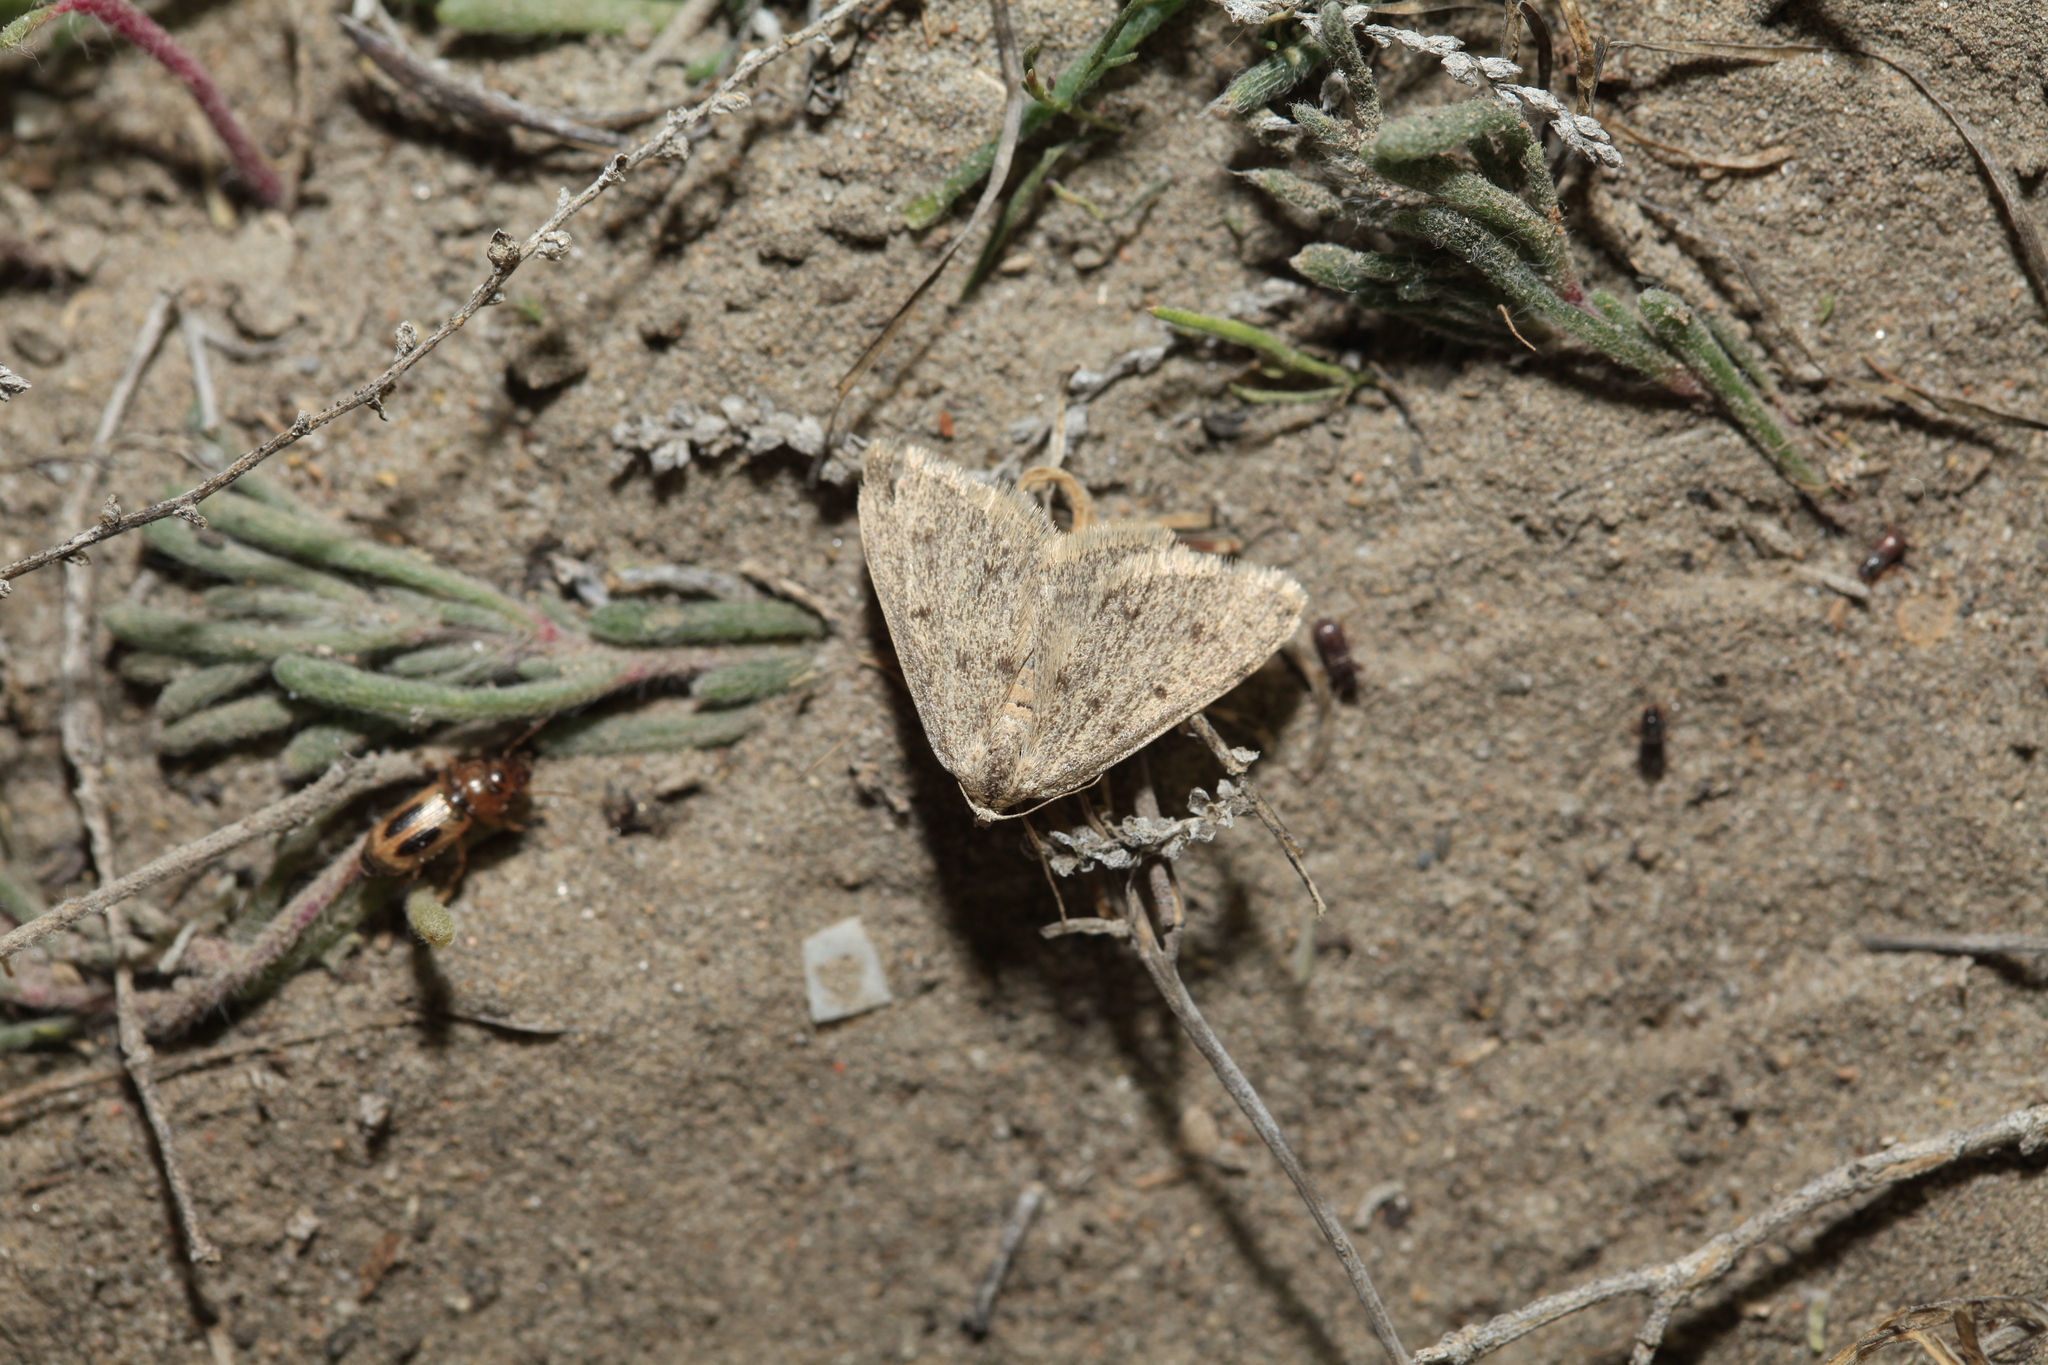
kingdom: Animalia
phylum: Arthropoda
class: Insecta
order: Lepidoptera
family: Geometridae
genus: Rhodostrophia
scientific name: Rhodostrophia badiaria
